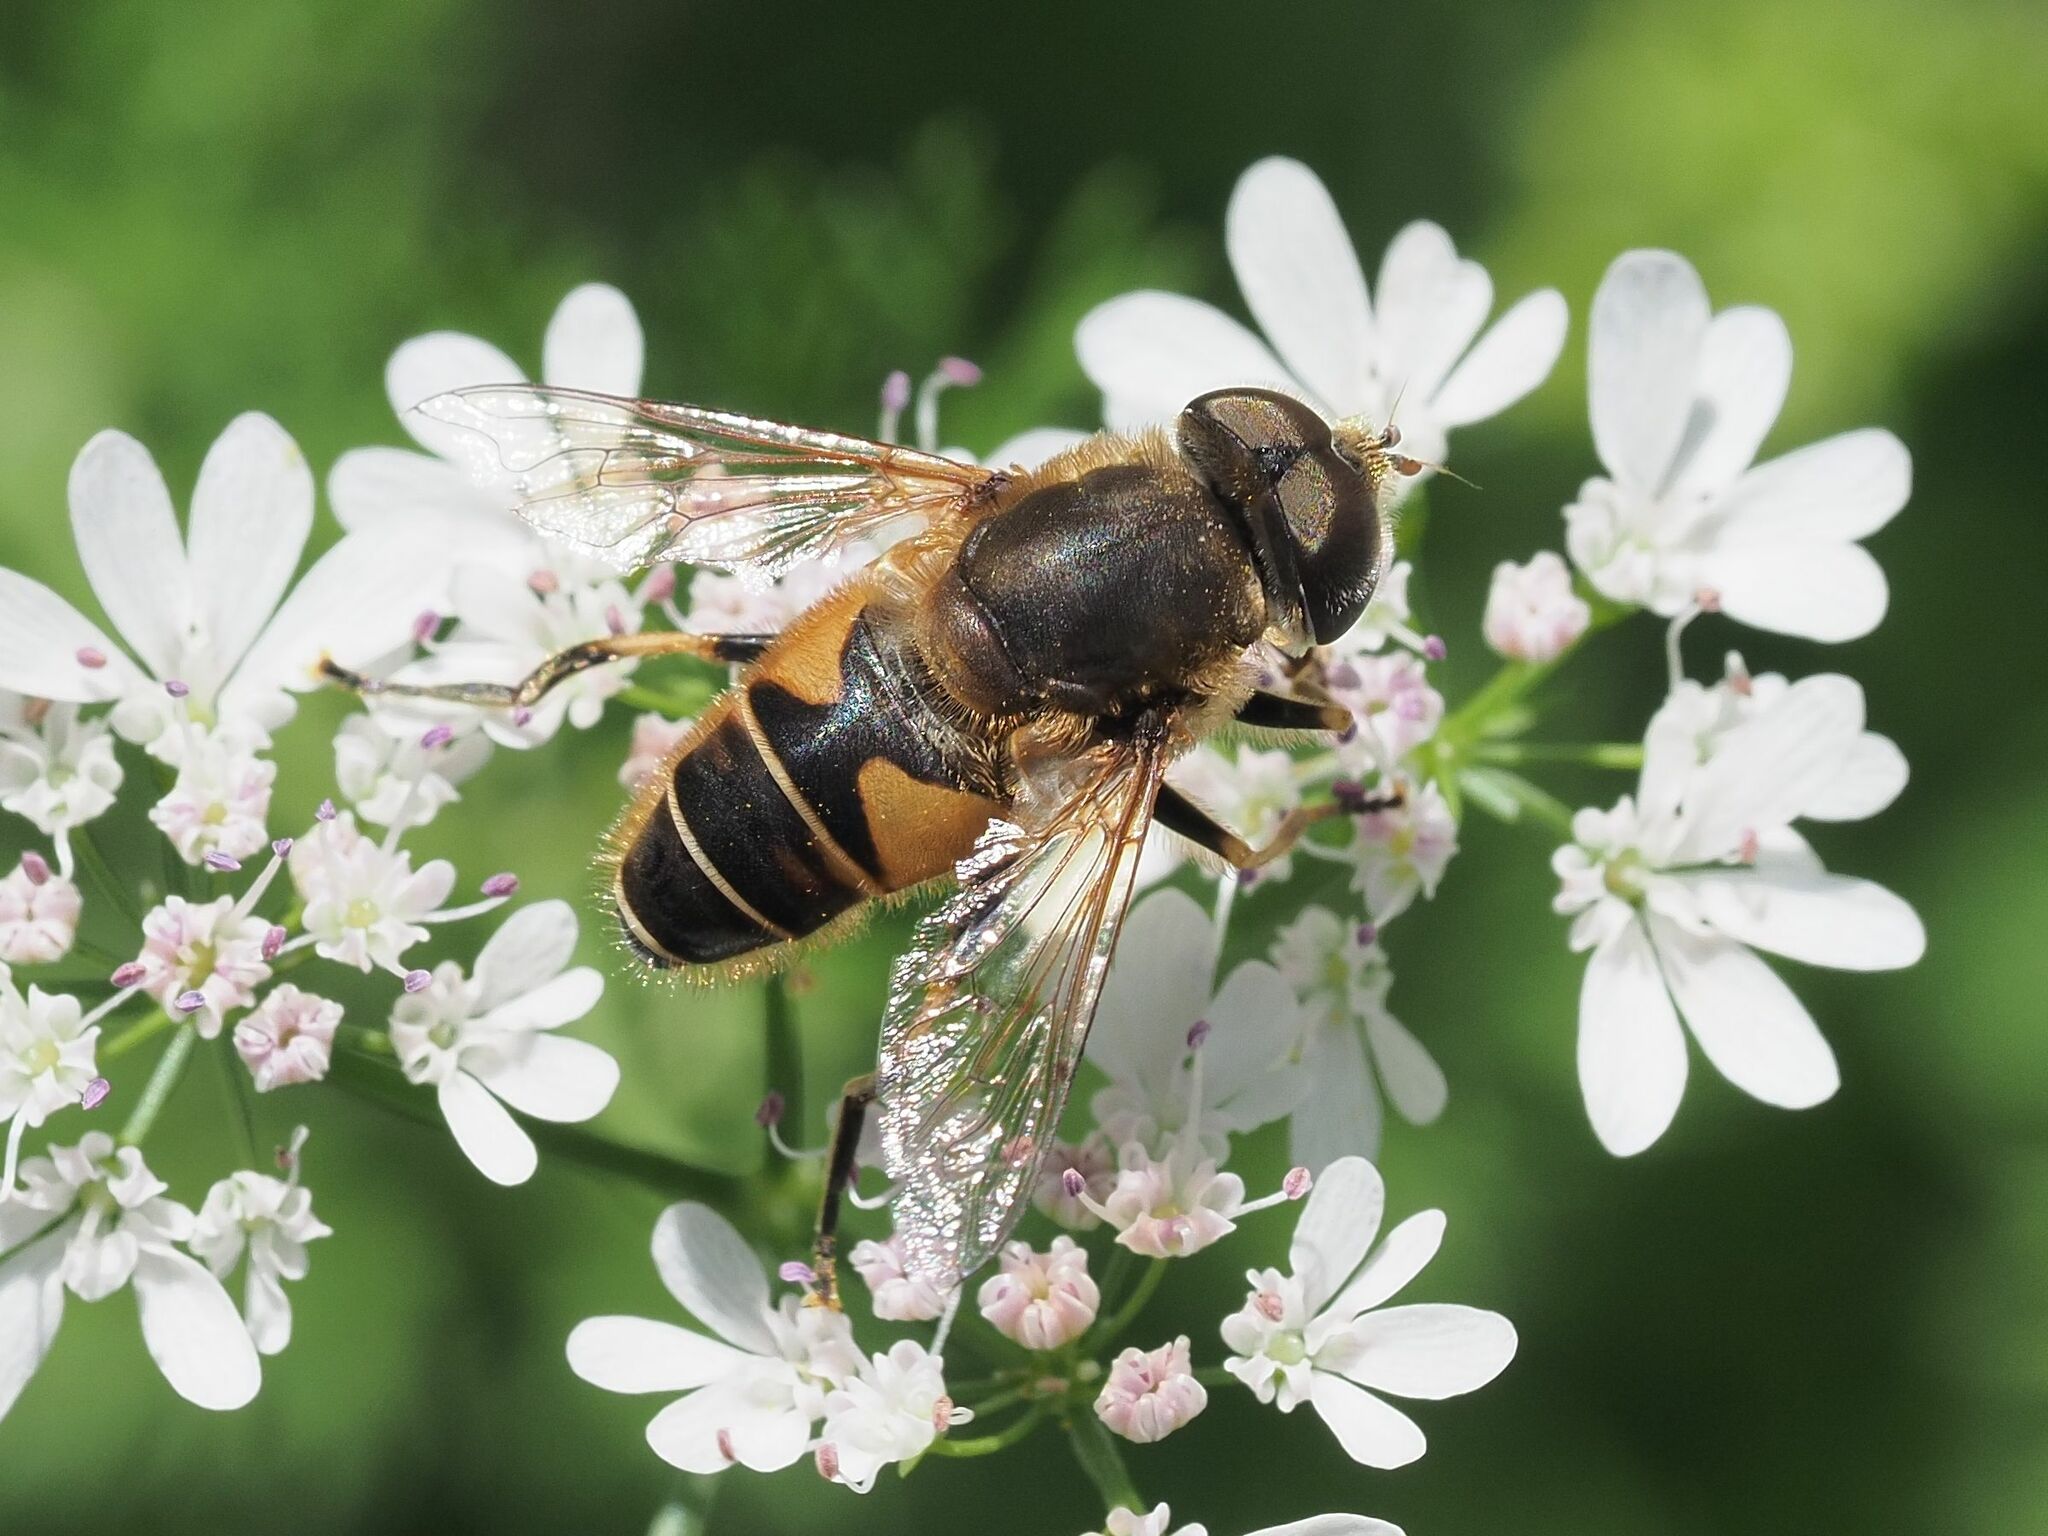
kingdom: Animalia
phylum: Arthropoda
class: Insecta
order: Diptera
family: Syrphidae
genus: Eristalis
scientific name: Eristalis nemorum
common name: Orange-spined drone fly
